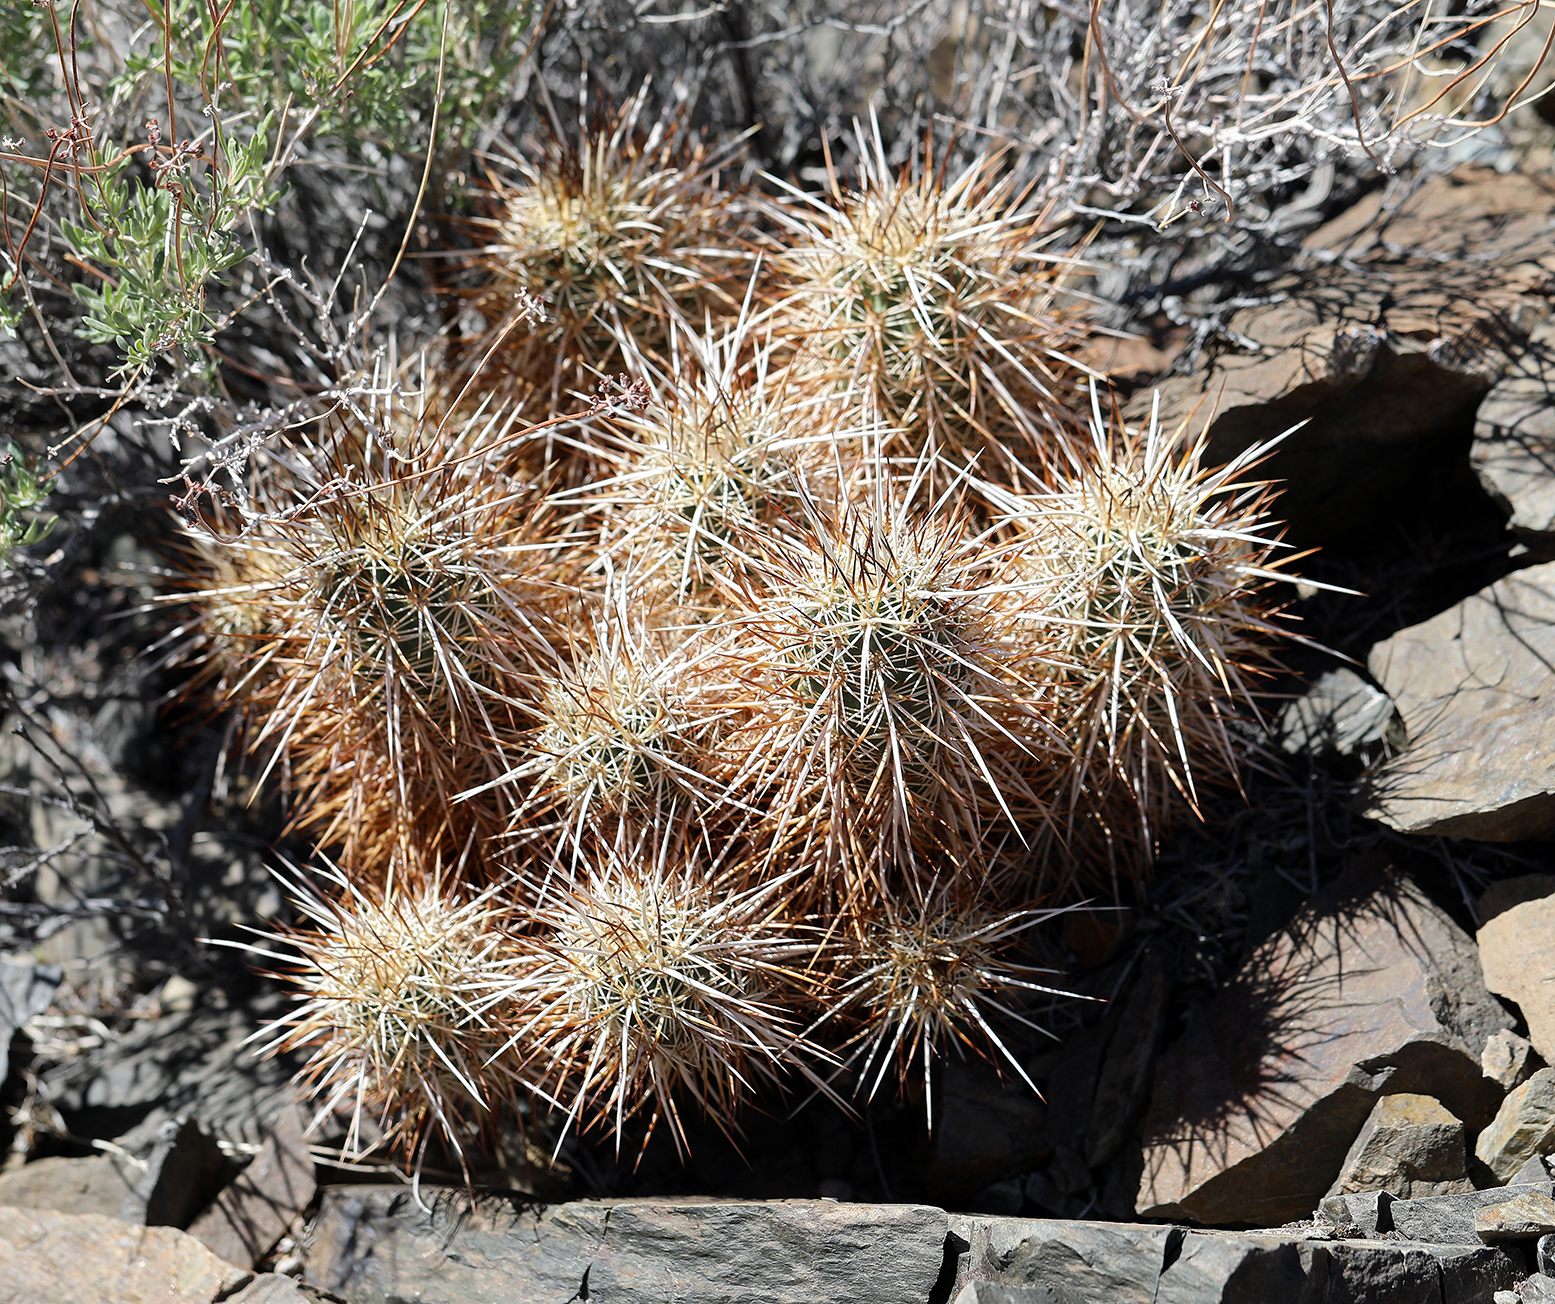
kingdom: Plantae
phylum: Tracheophyta
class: Magnoliopsida
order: Caryophyllales
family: Cactaceae
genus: Echinocereus
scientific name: Echinocereus engelmannii
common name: Engelmann's hedgehog cactus
